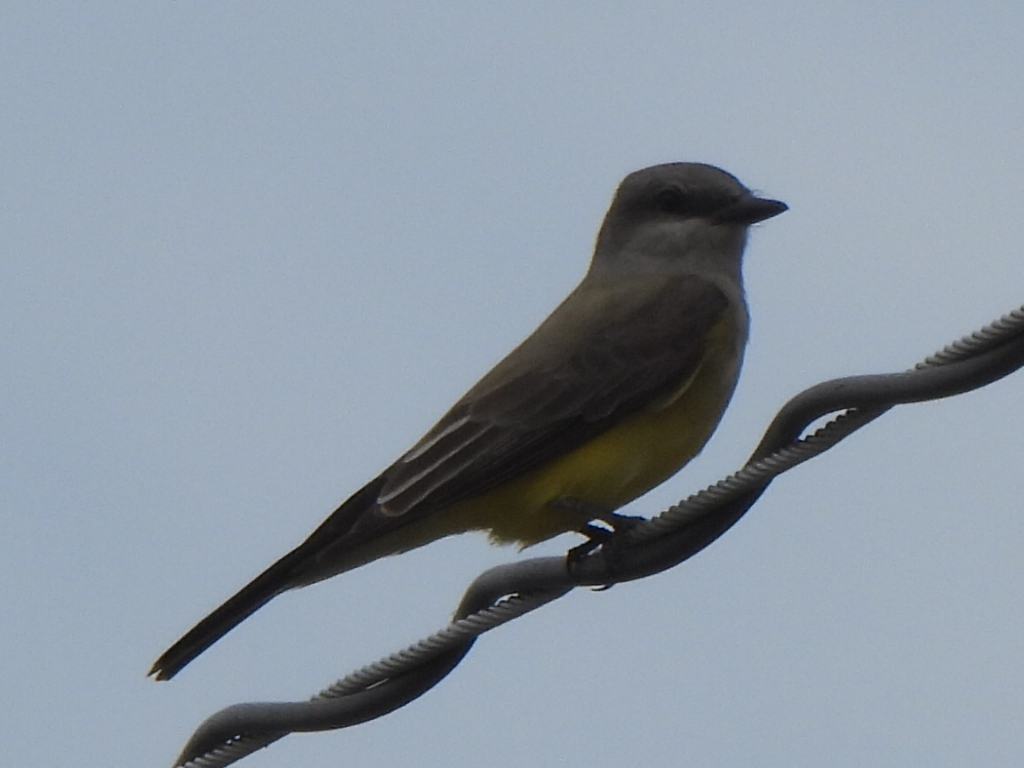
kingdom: Animalia
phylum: Chordata
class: Aves
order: Passeriformes
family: Tyrannidae
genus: Tyrannus
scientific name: Tyrannus verticalis
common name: Western kingbird
